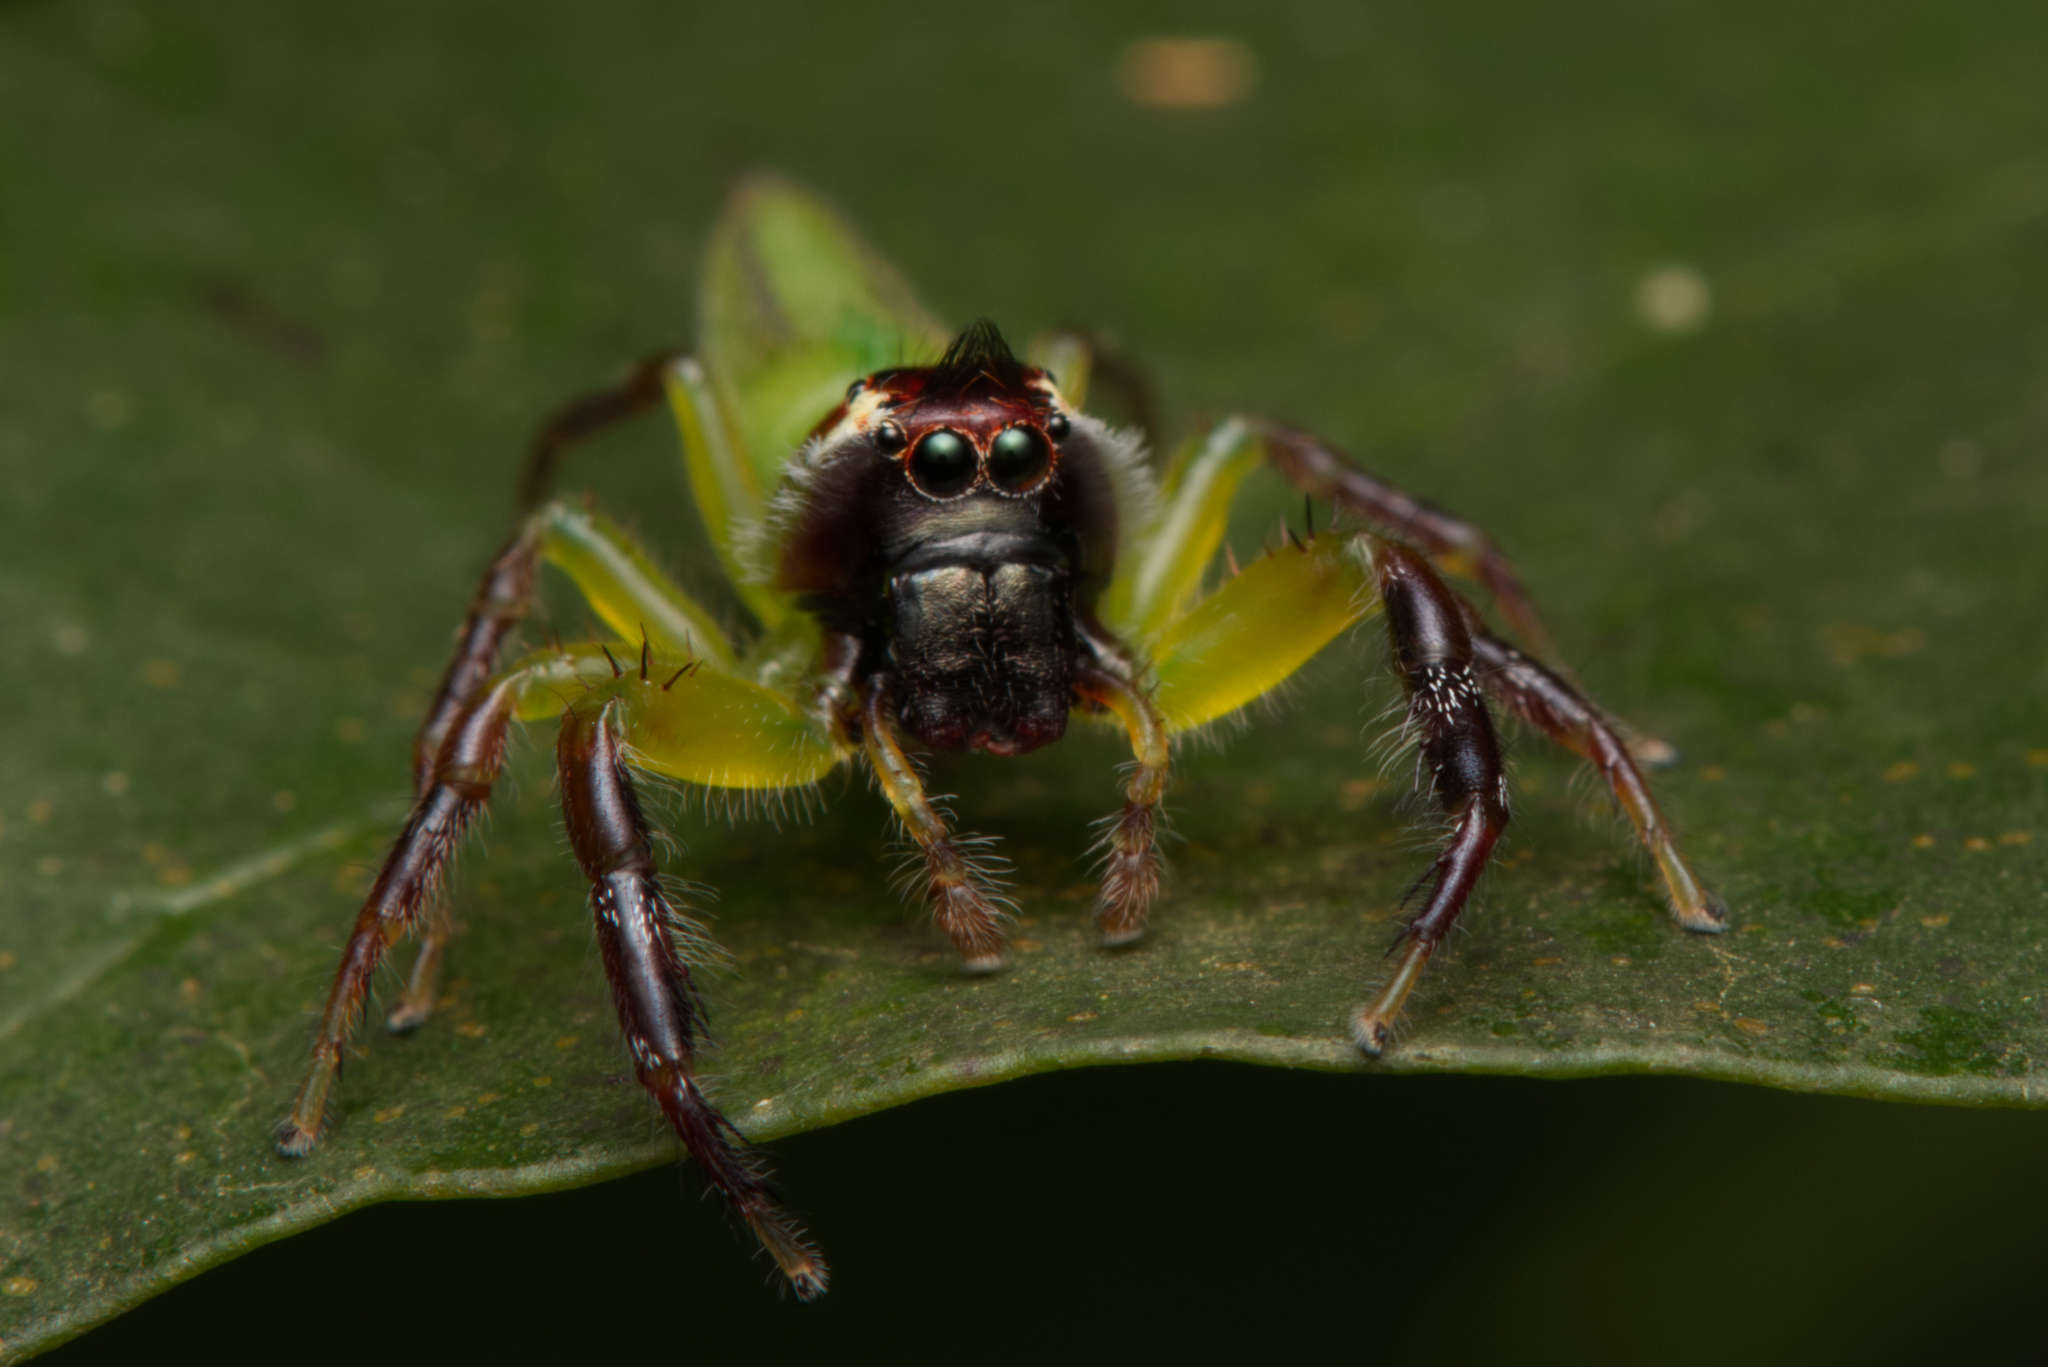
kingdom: Animalia
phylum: Arthropoda
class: Arachnida
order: Araneae
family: Salticidae
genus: Mopsus
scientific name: Mopsus mormon
